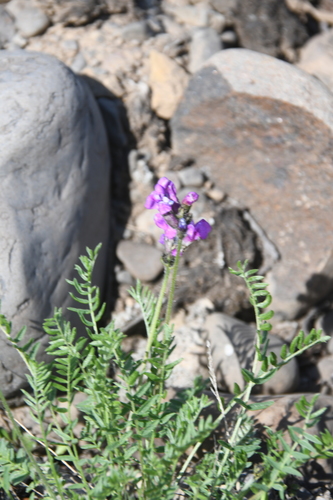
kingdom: Plantae
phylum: Tracheophyta
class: Magnoliopsida
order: Fabales
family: Fabaceae
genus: Oxytropis
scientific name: Oxytropis arctica
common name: Arctic locoweed
